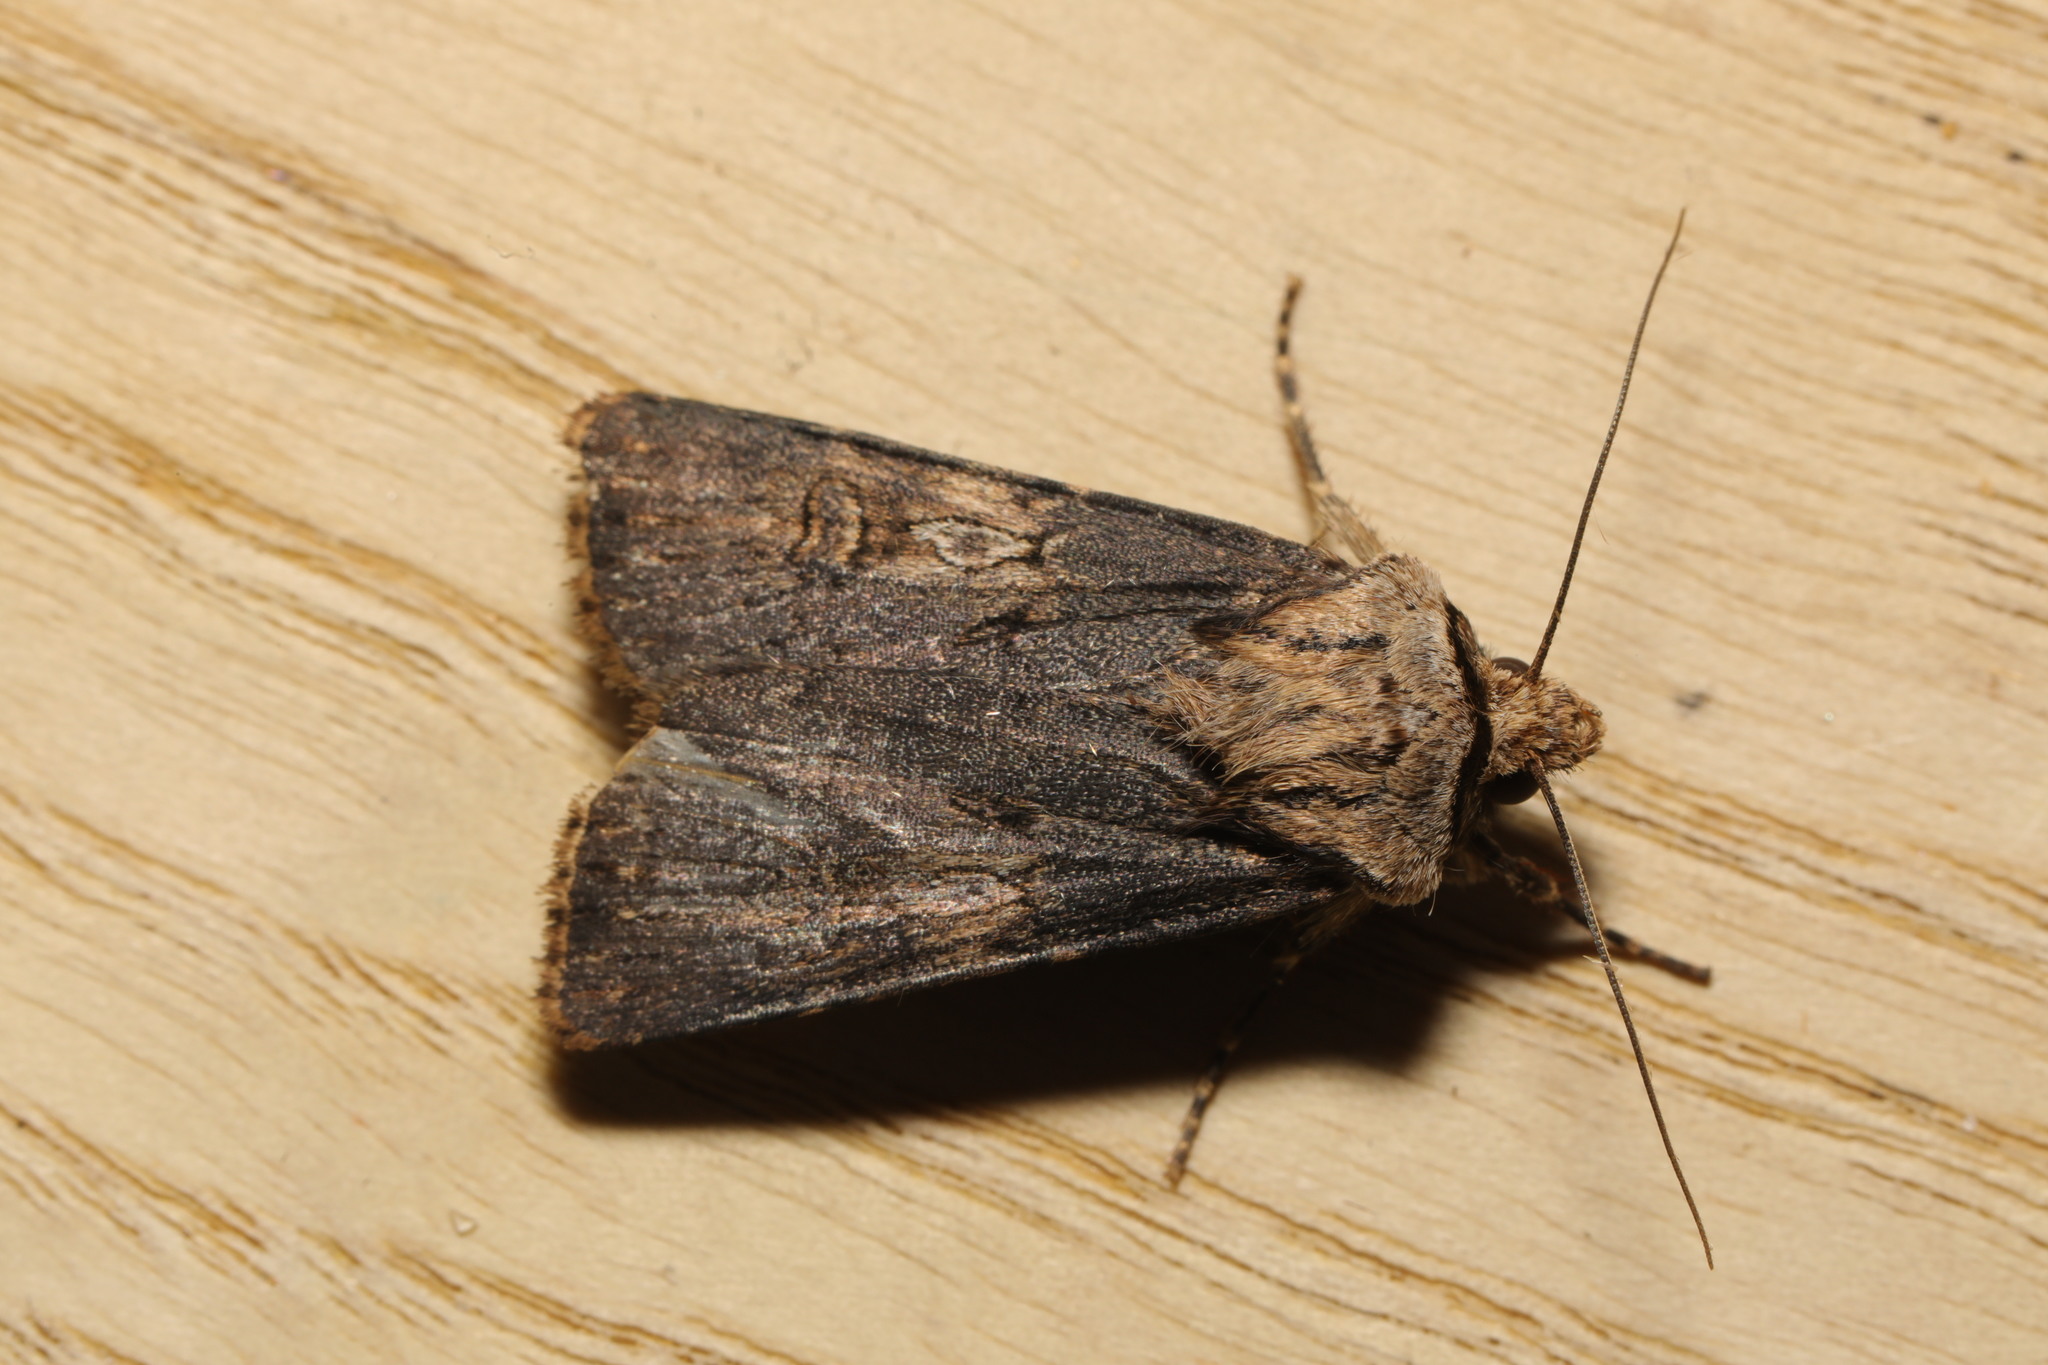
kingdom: Animalia
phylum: Arthropoda
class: Insecta
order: Lepidoptera
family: Noctuidae
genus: Agrotis
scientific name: Agrotis puta
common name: Shuttle-shaped dart
